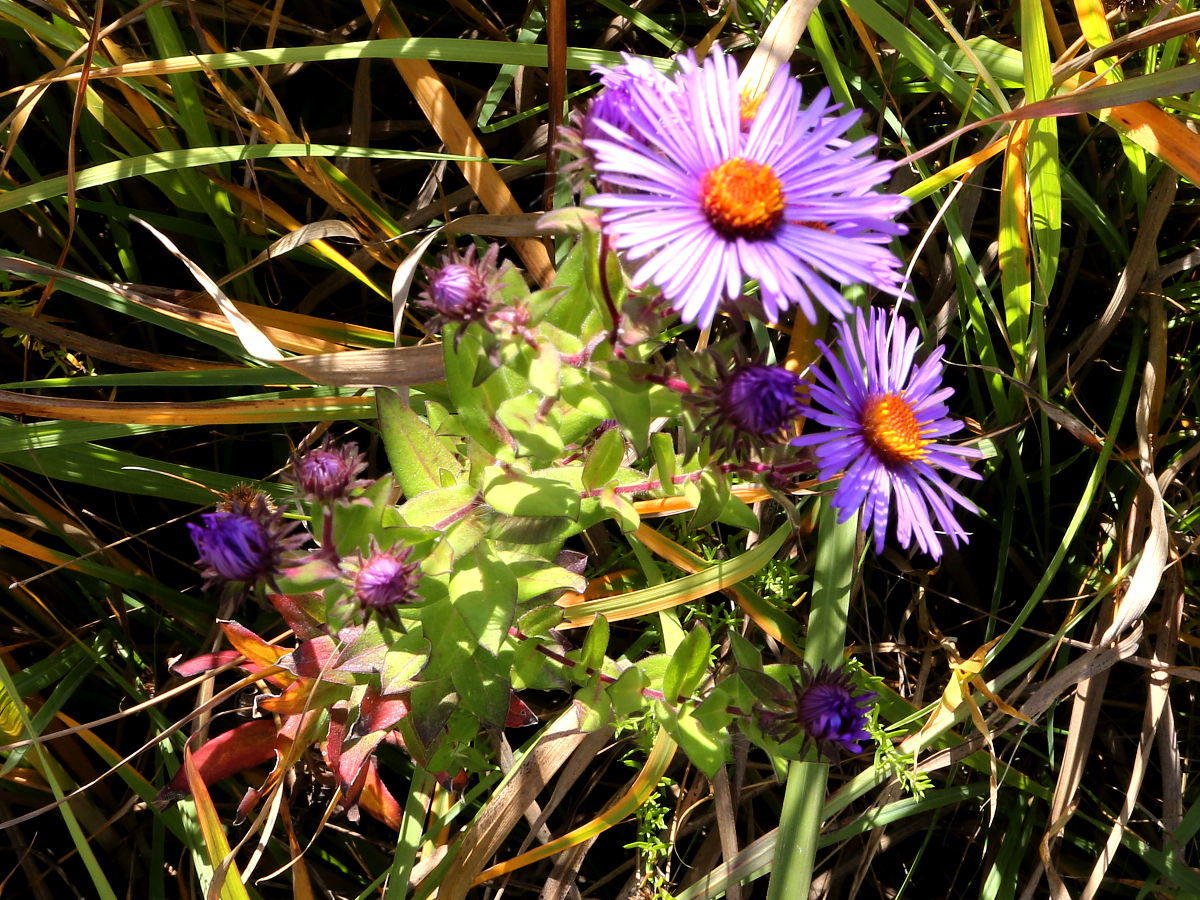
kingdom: Plantae
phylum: Tracheophyta
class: Magnoliopsida
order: Asterales
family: Asteraceae
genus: Symphyotrichum
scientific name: Symphyotrichum novae-angliae
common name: Michaelmas daisy
